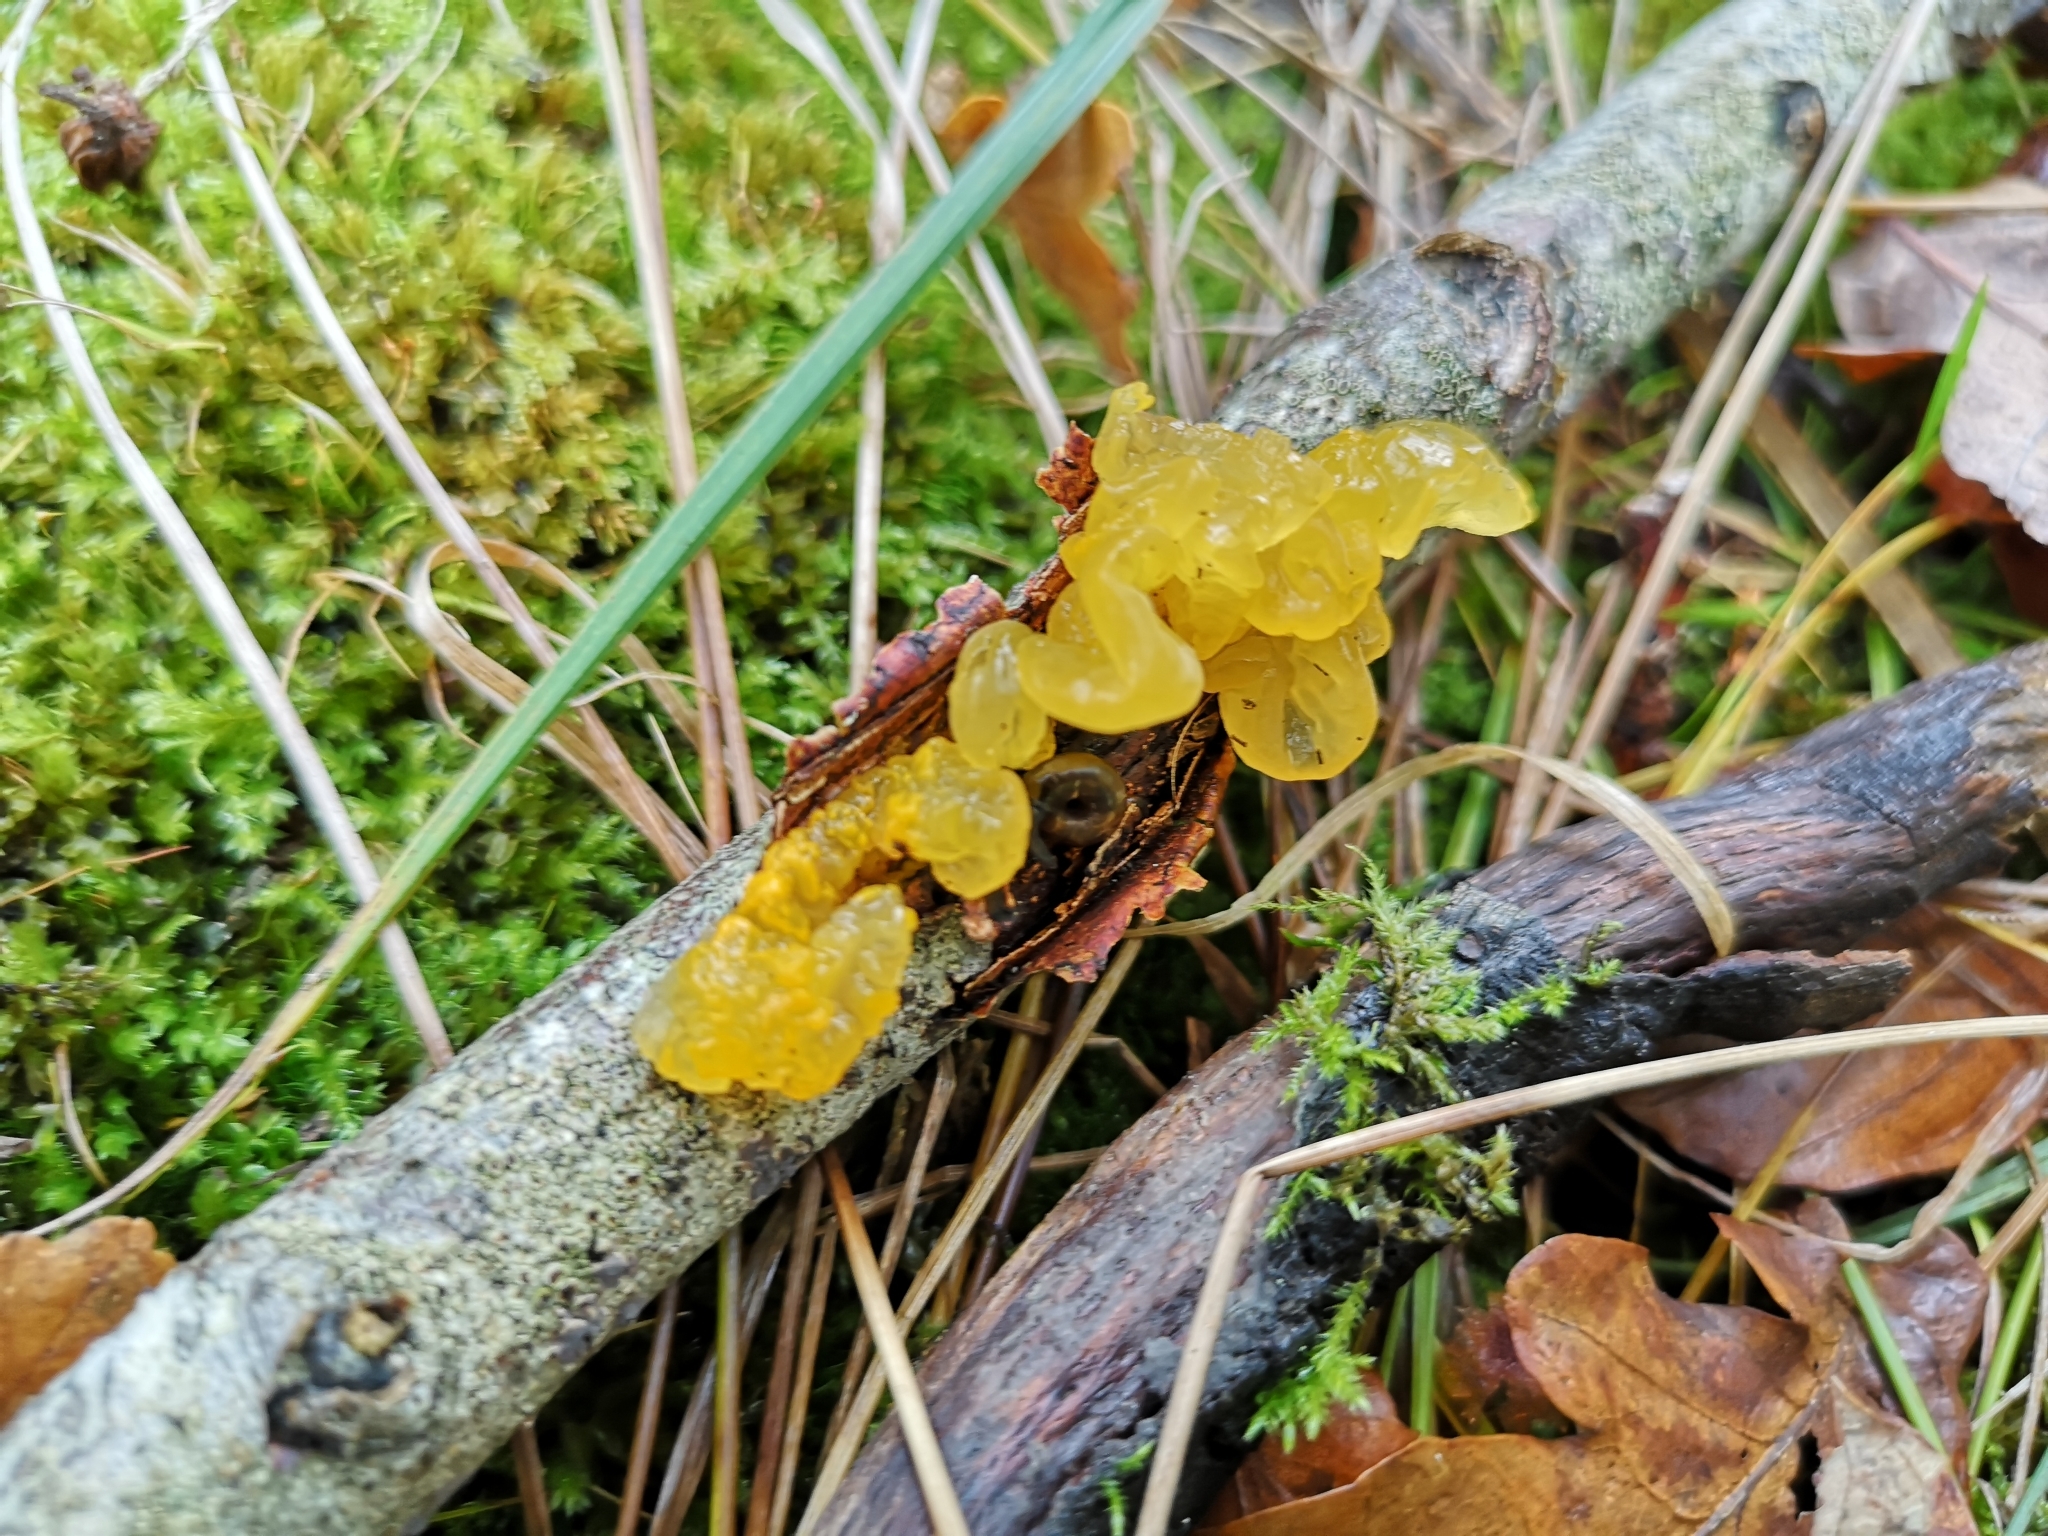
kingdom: Fungi
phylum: Basidiomycota
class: Tremellomycetes
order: Tremellales
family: Tremellaceae
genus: Tremella
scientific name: Tremella mesenterica
